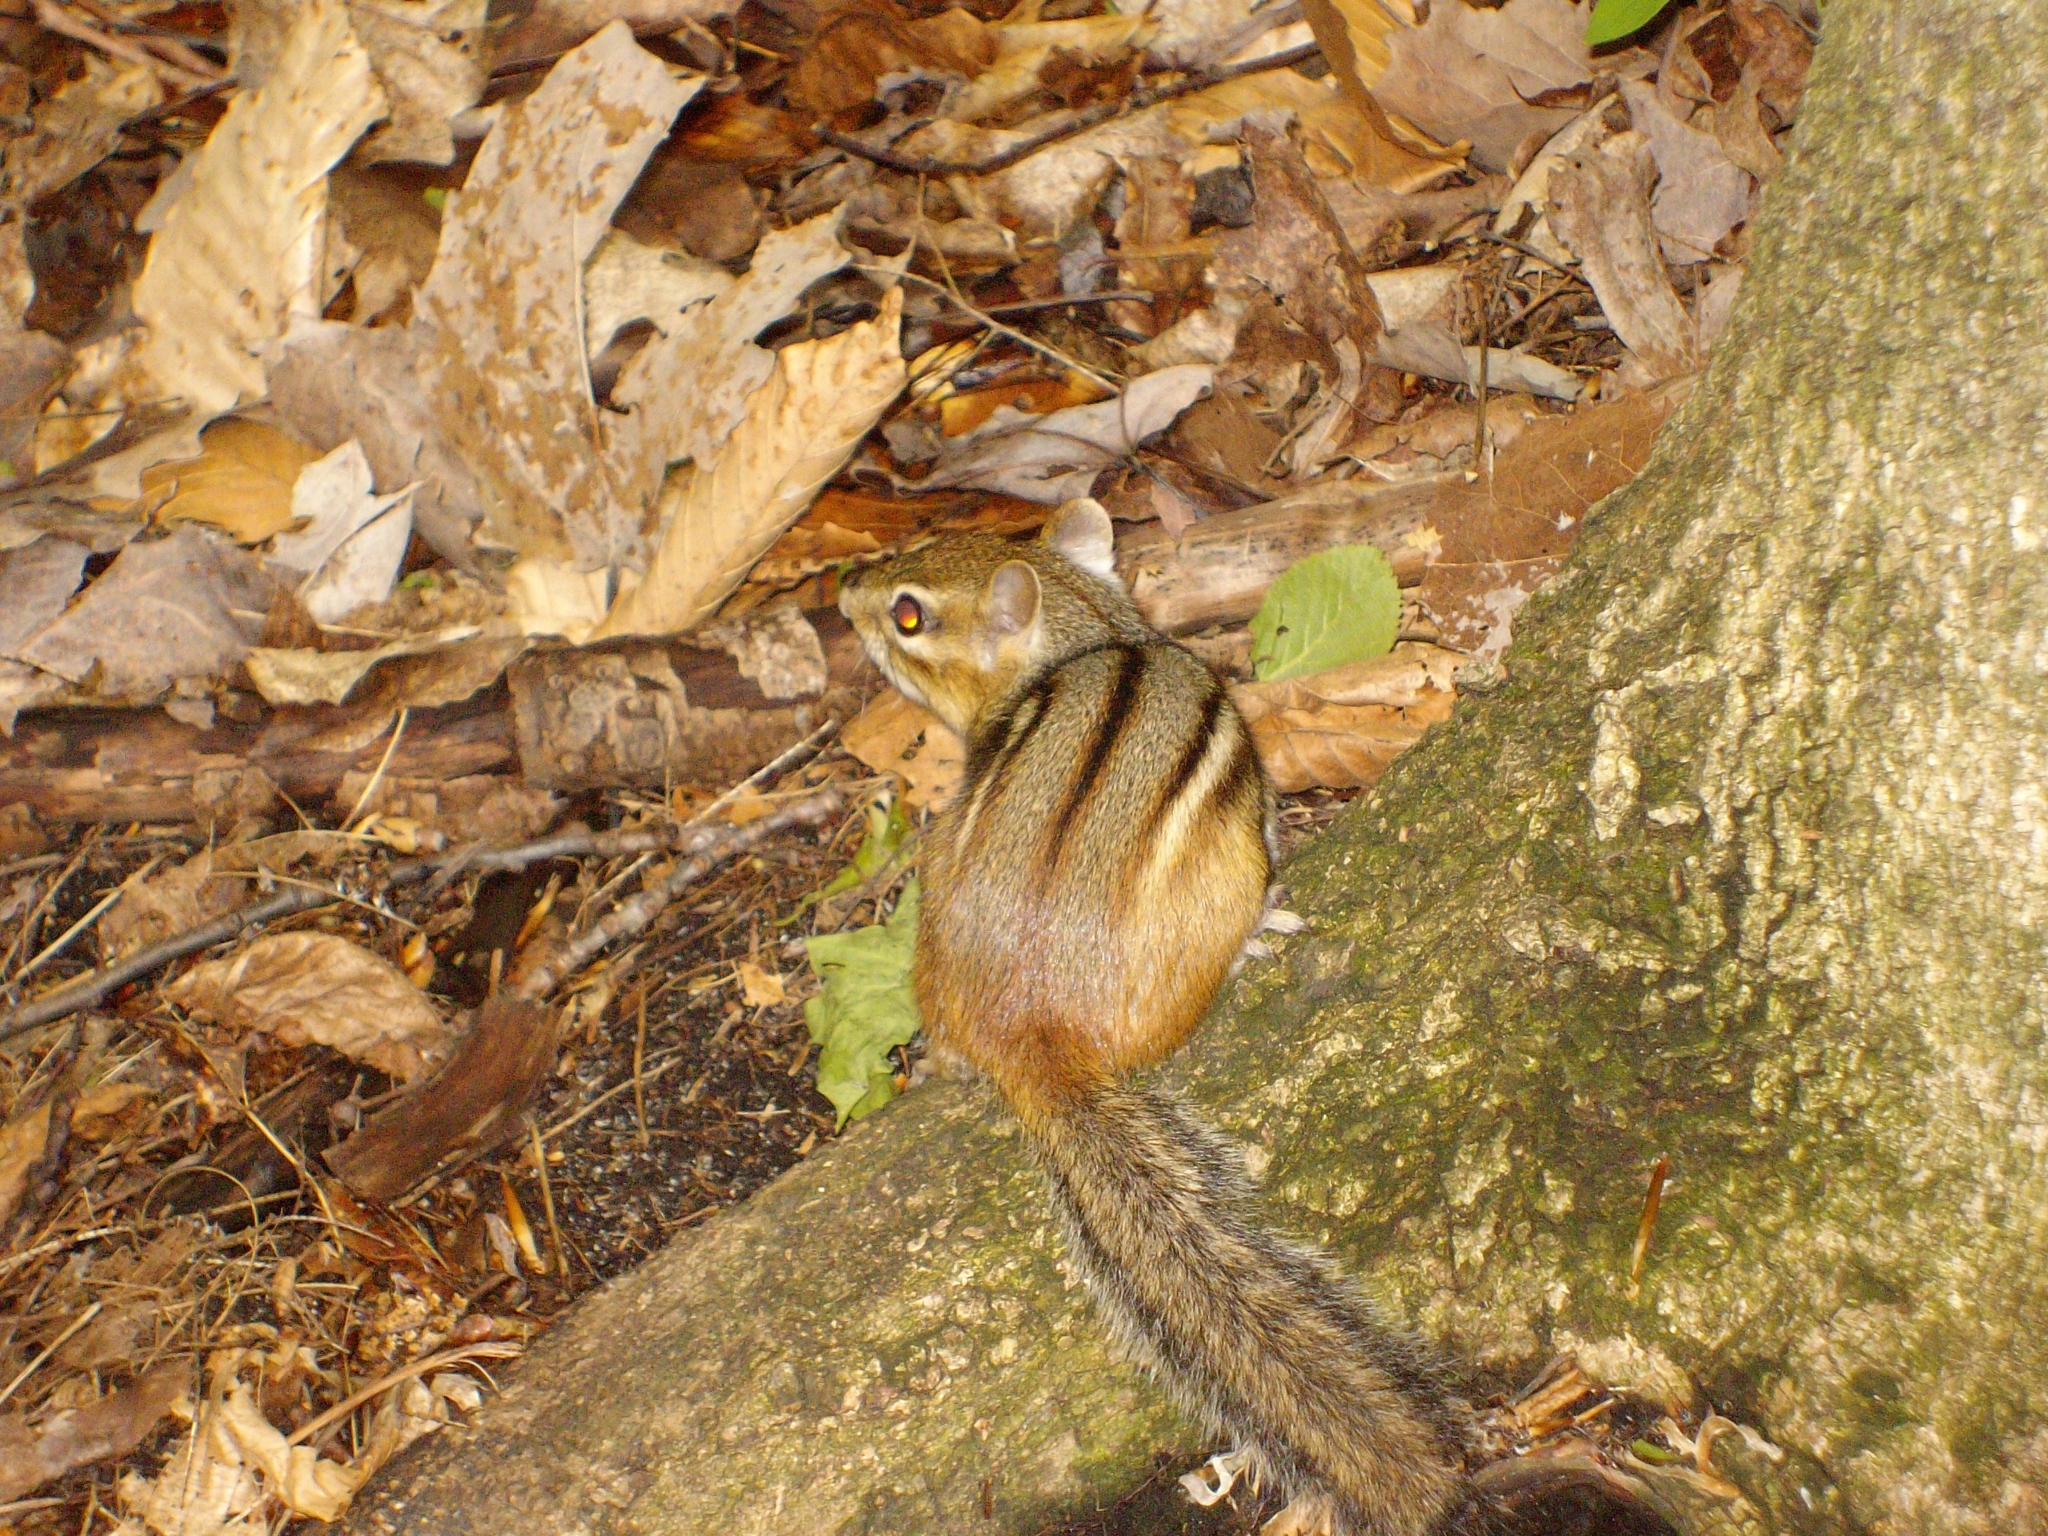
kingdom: Animalia
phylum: Chordata
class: Mammalia
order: Rodentia
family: Sciuridae
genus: Tamias
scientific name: Tamias striatus
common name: Eastern chipmunk
